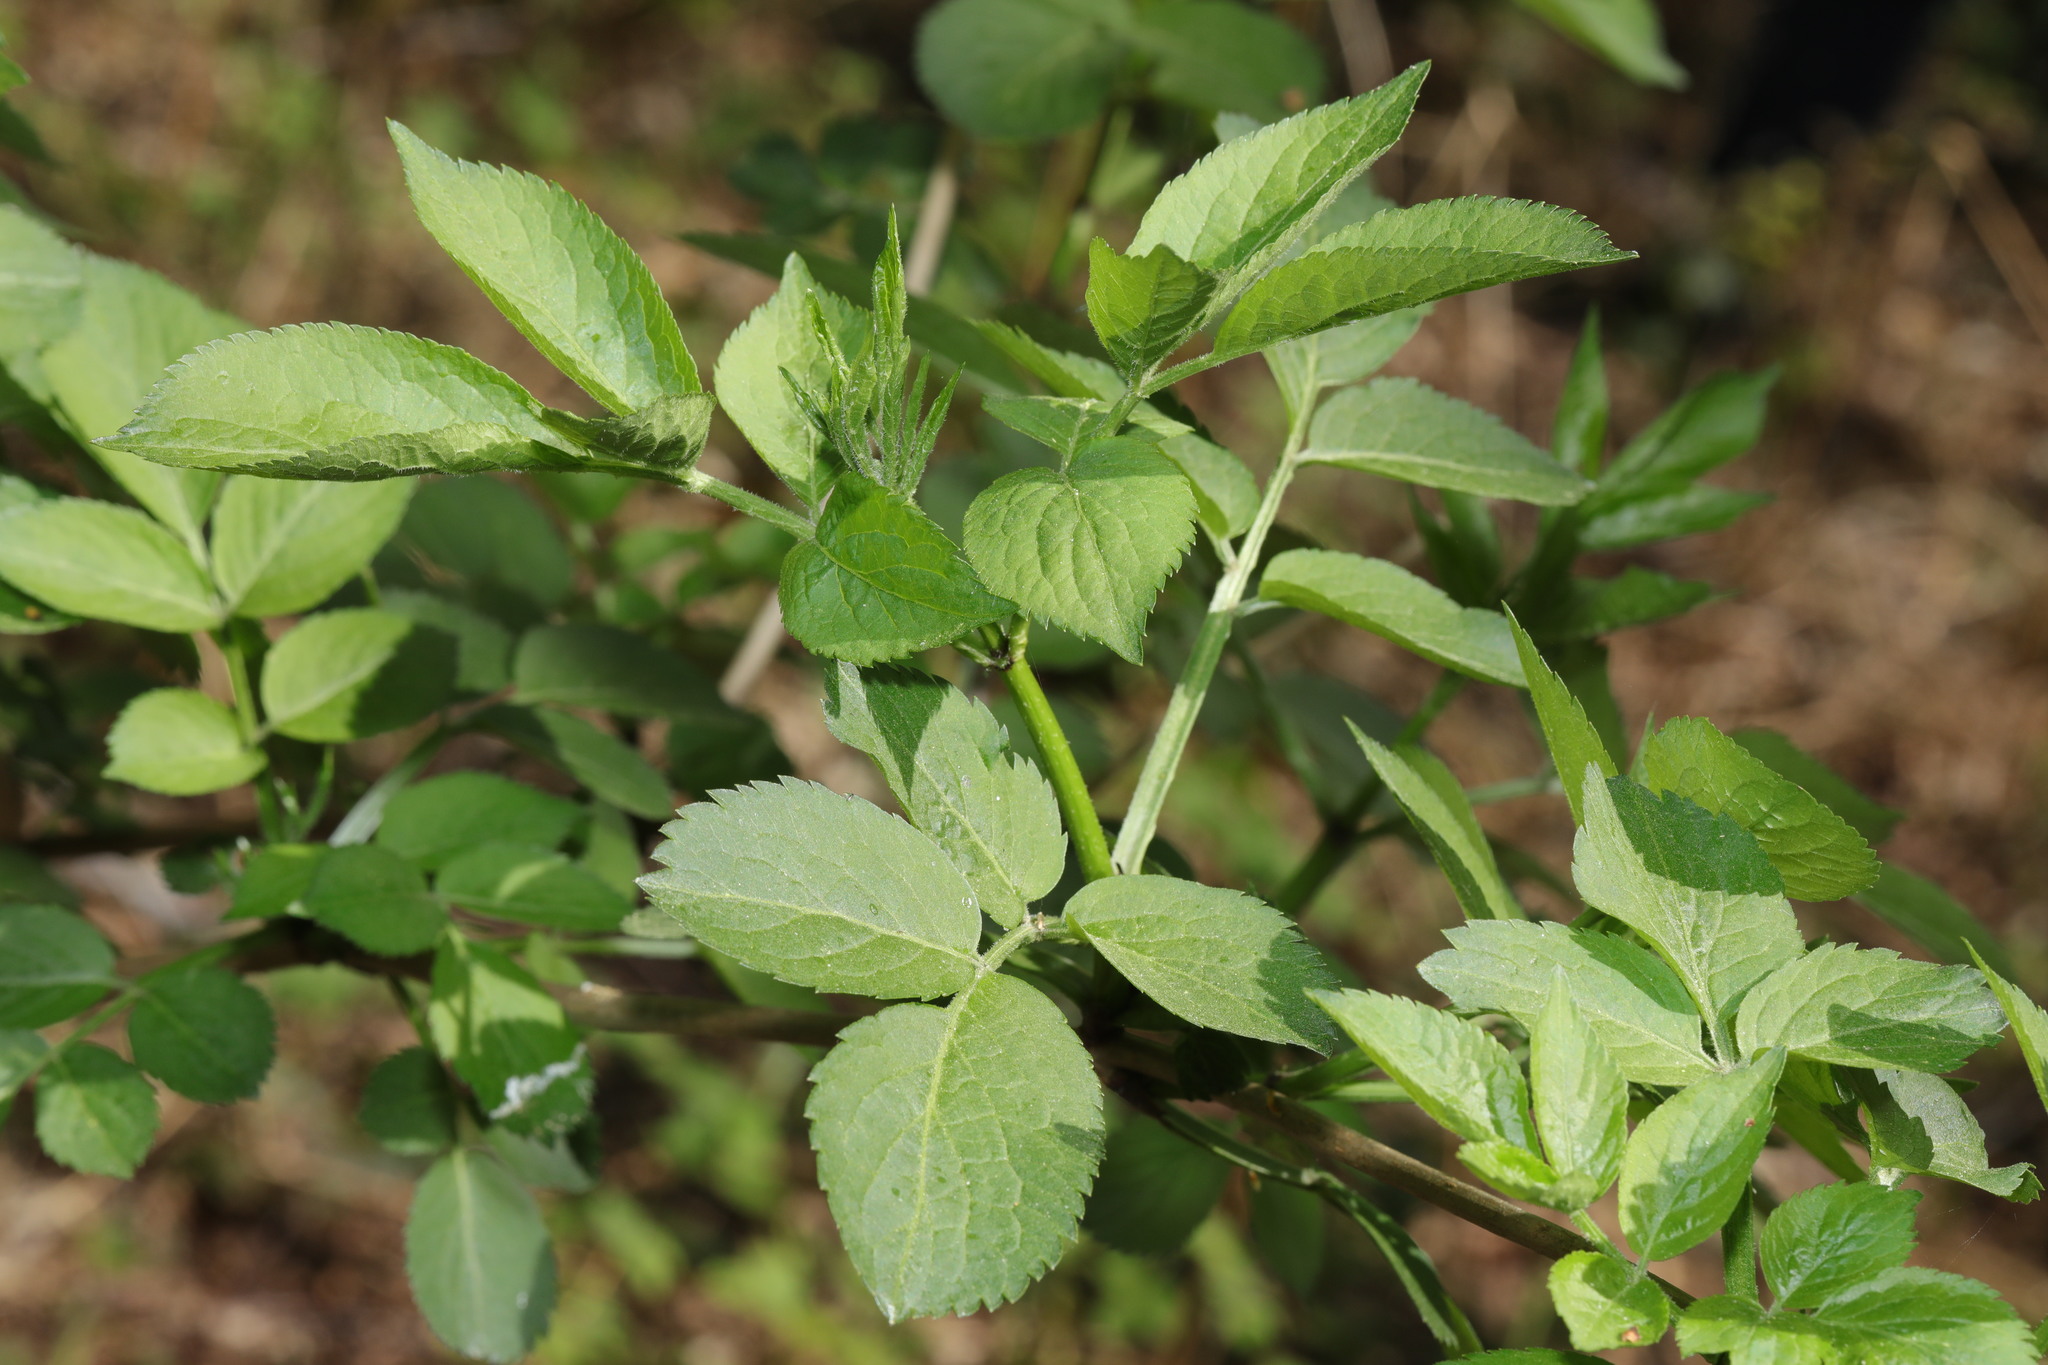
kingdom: Plantae
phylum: Tracheophyta
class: Magnoliopsida
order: Dipsacales
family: Viburnaceae
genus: Sambucus
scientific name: Sambucus nigra
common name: Elder
